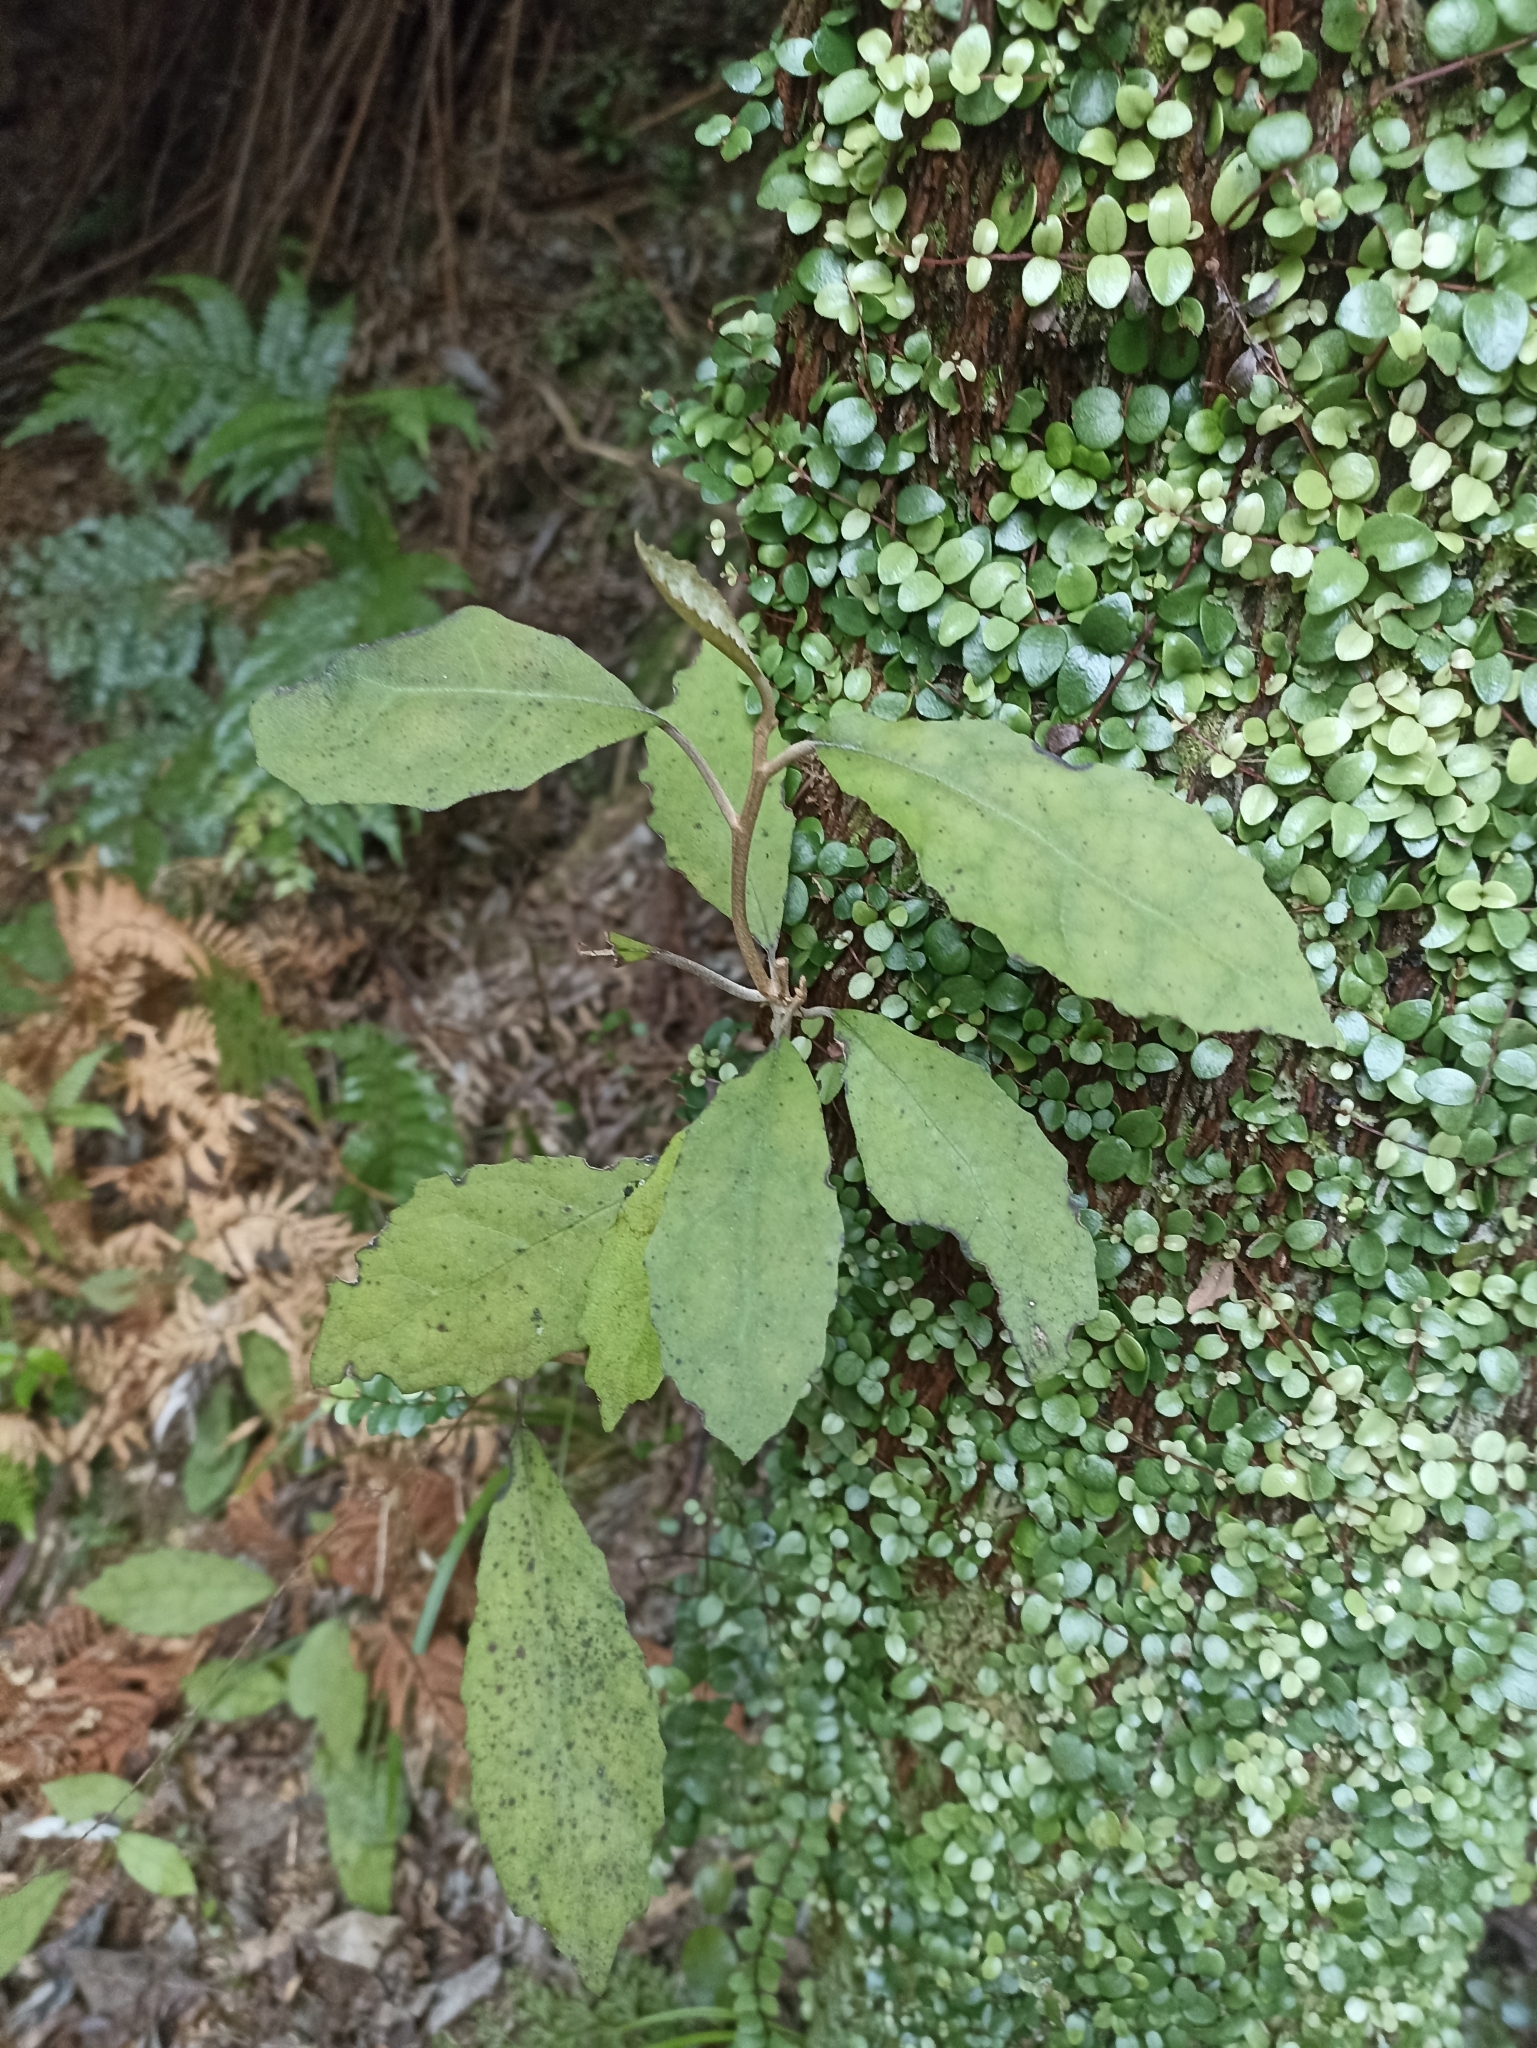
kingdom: Plantae
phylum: Tracheophyta
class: Magnoliopsida
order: Asterales
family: Asteraceae
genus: Olearia
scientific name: Olearia rani
